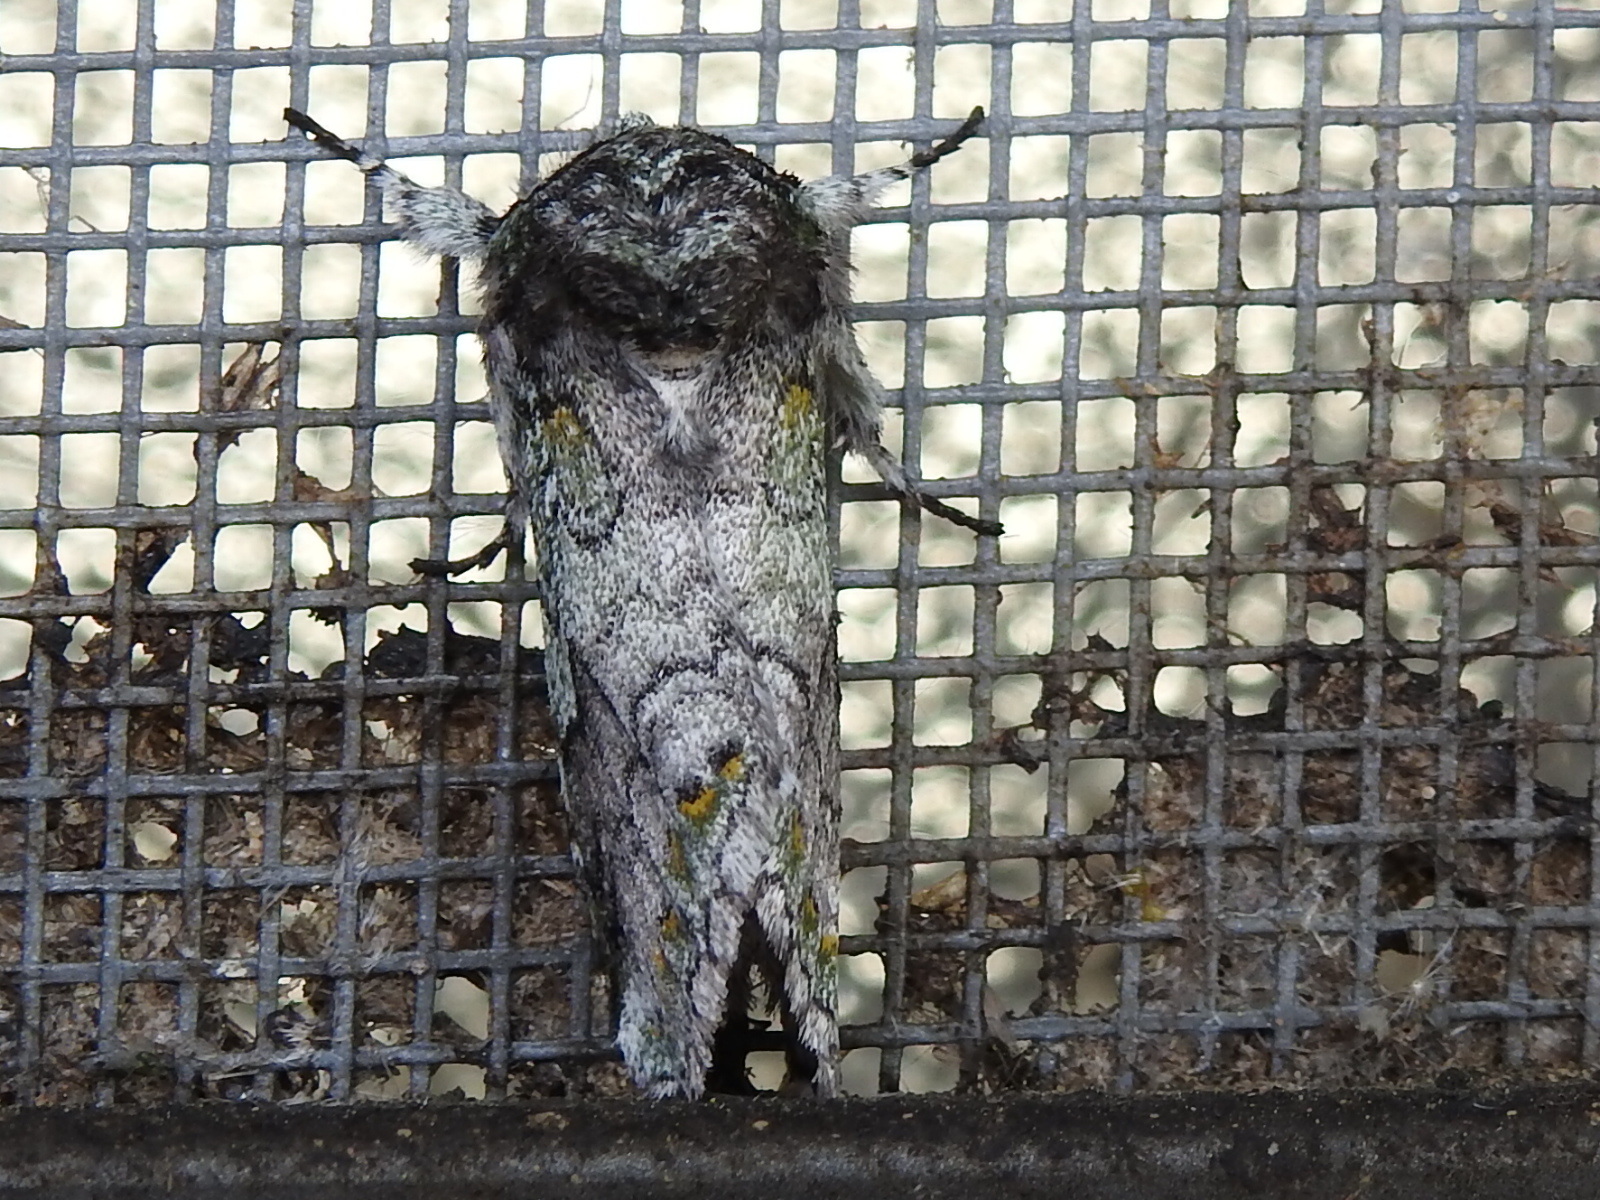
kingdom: Animalia
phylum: Arthropoda
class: Insecta
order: Lepidoptera
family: Notodontidae
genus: Litodonta
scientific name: Litodonta hydromeli
